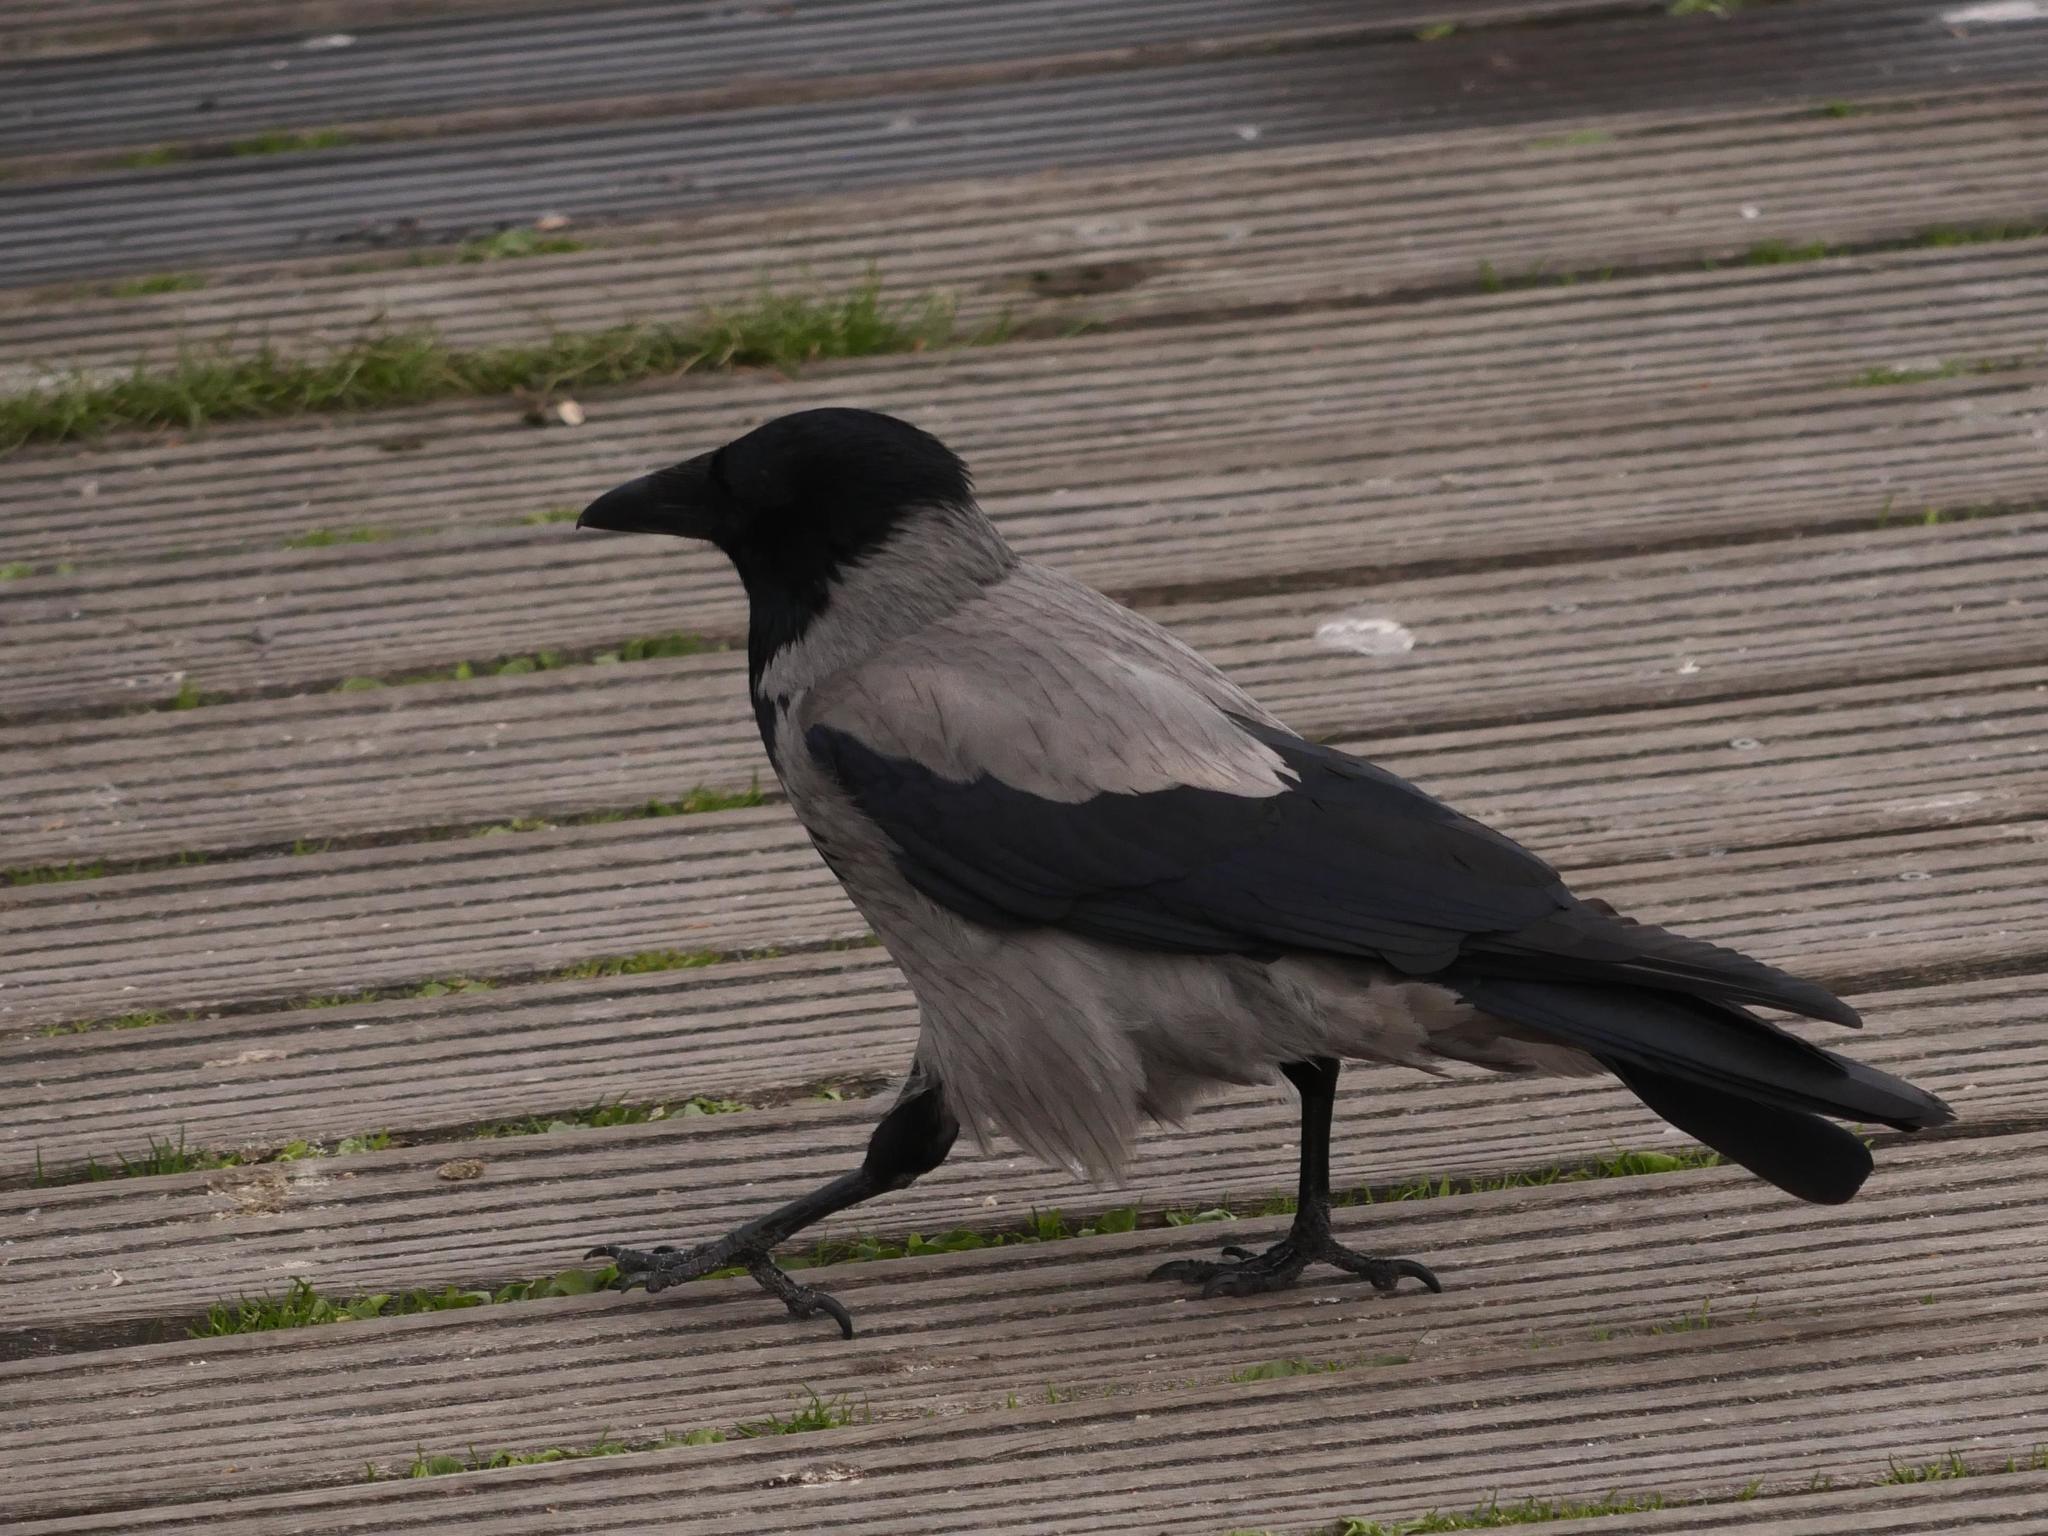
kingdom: Animalia
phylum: Chordata
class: Aves
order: Passeriformes
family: Corvidae
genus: Corvus
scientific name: Corvus cornix
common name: Hooded crow
